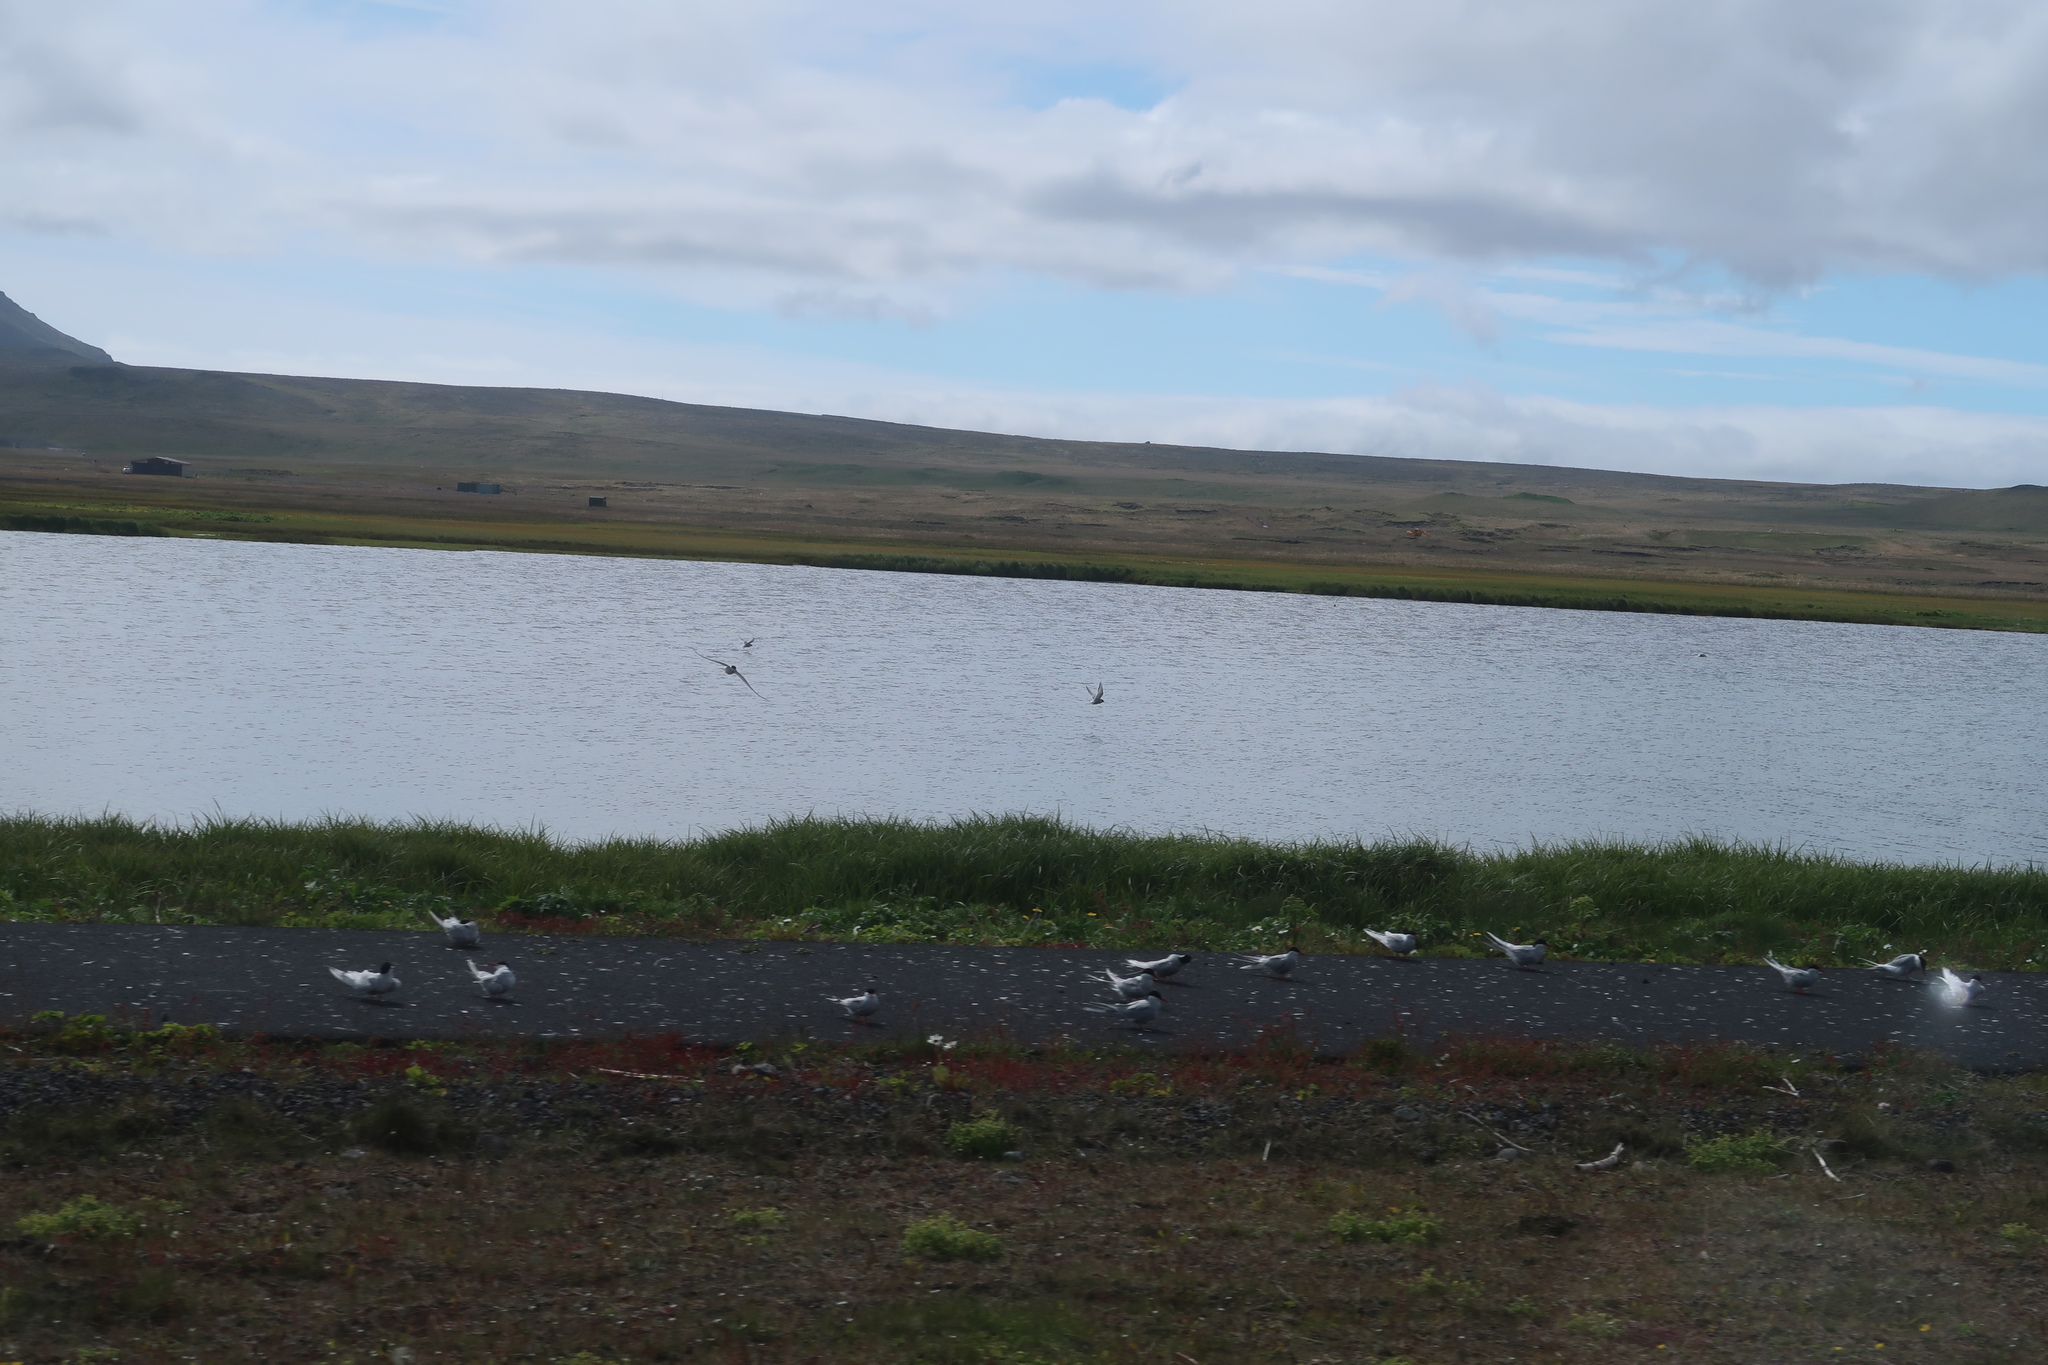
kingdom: Animalia
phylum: Chordata
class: Aves
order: Charadriiformes
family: Laridae
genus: Sterna
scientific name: Sterna paradisaea
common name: Arctic tern
